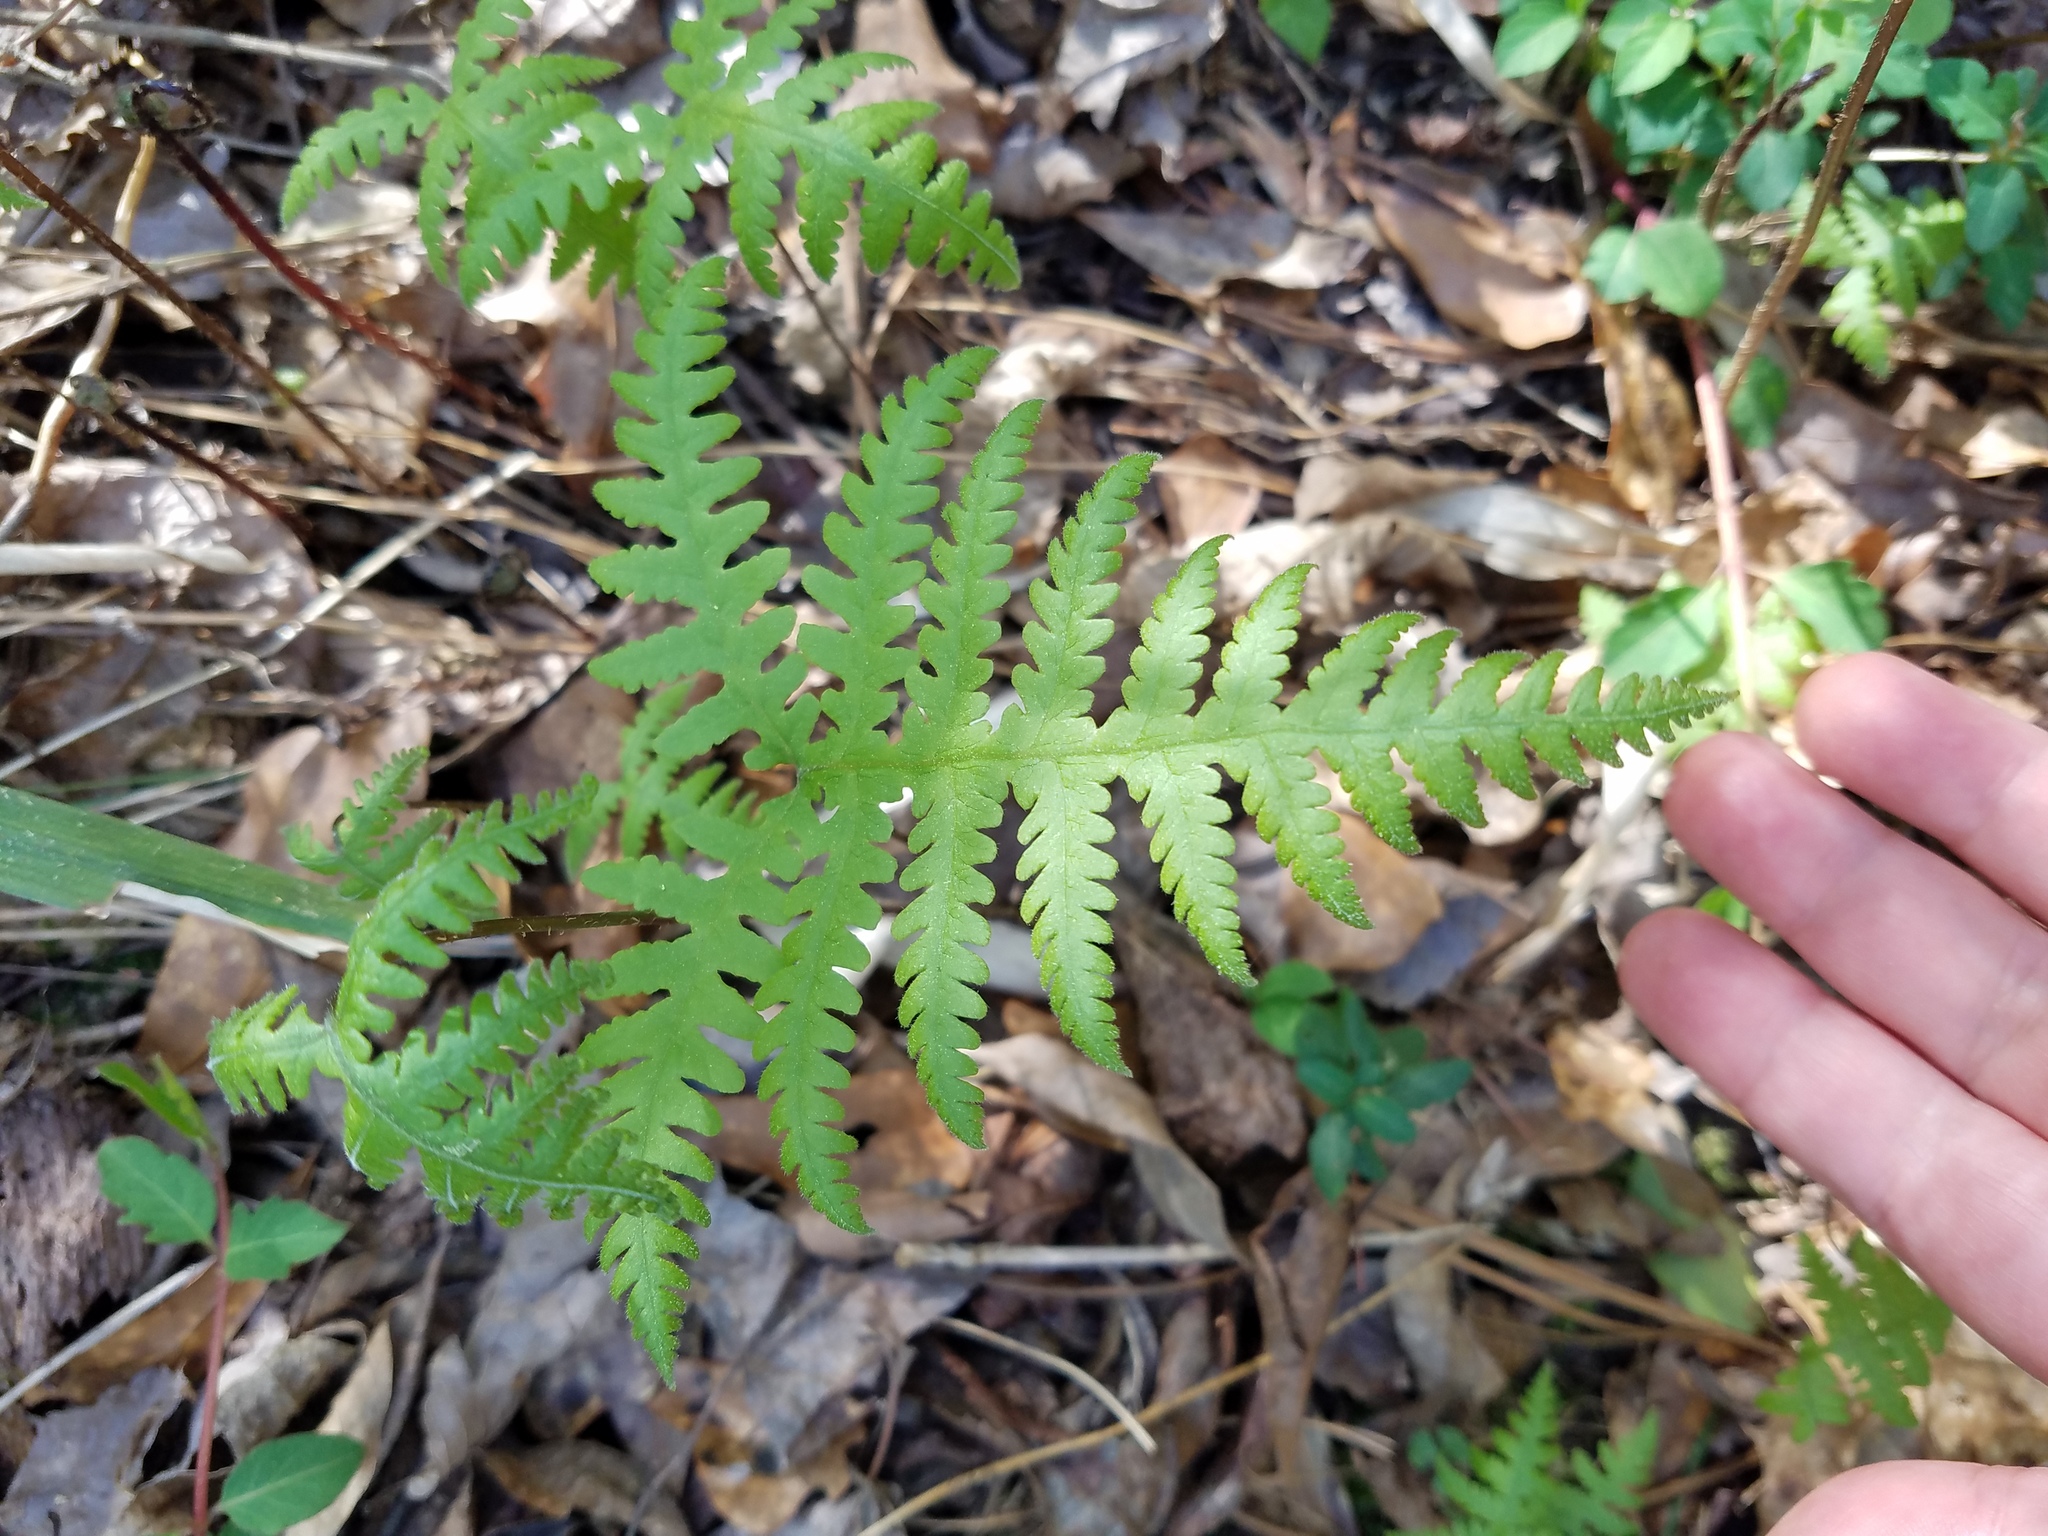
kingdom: Plantae
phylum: Tracheophyta
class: Polypodiopsida
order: Polypodiales
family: Thelypteridaceae
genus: Phegopteris
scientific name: Phegopteris hexagonoptera
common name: Broad beech fern
